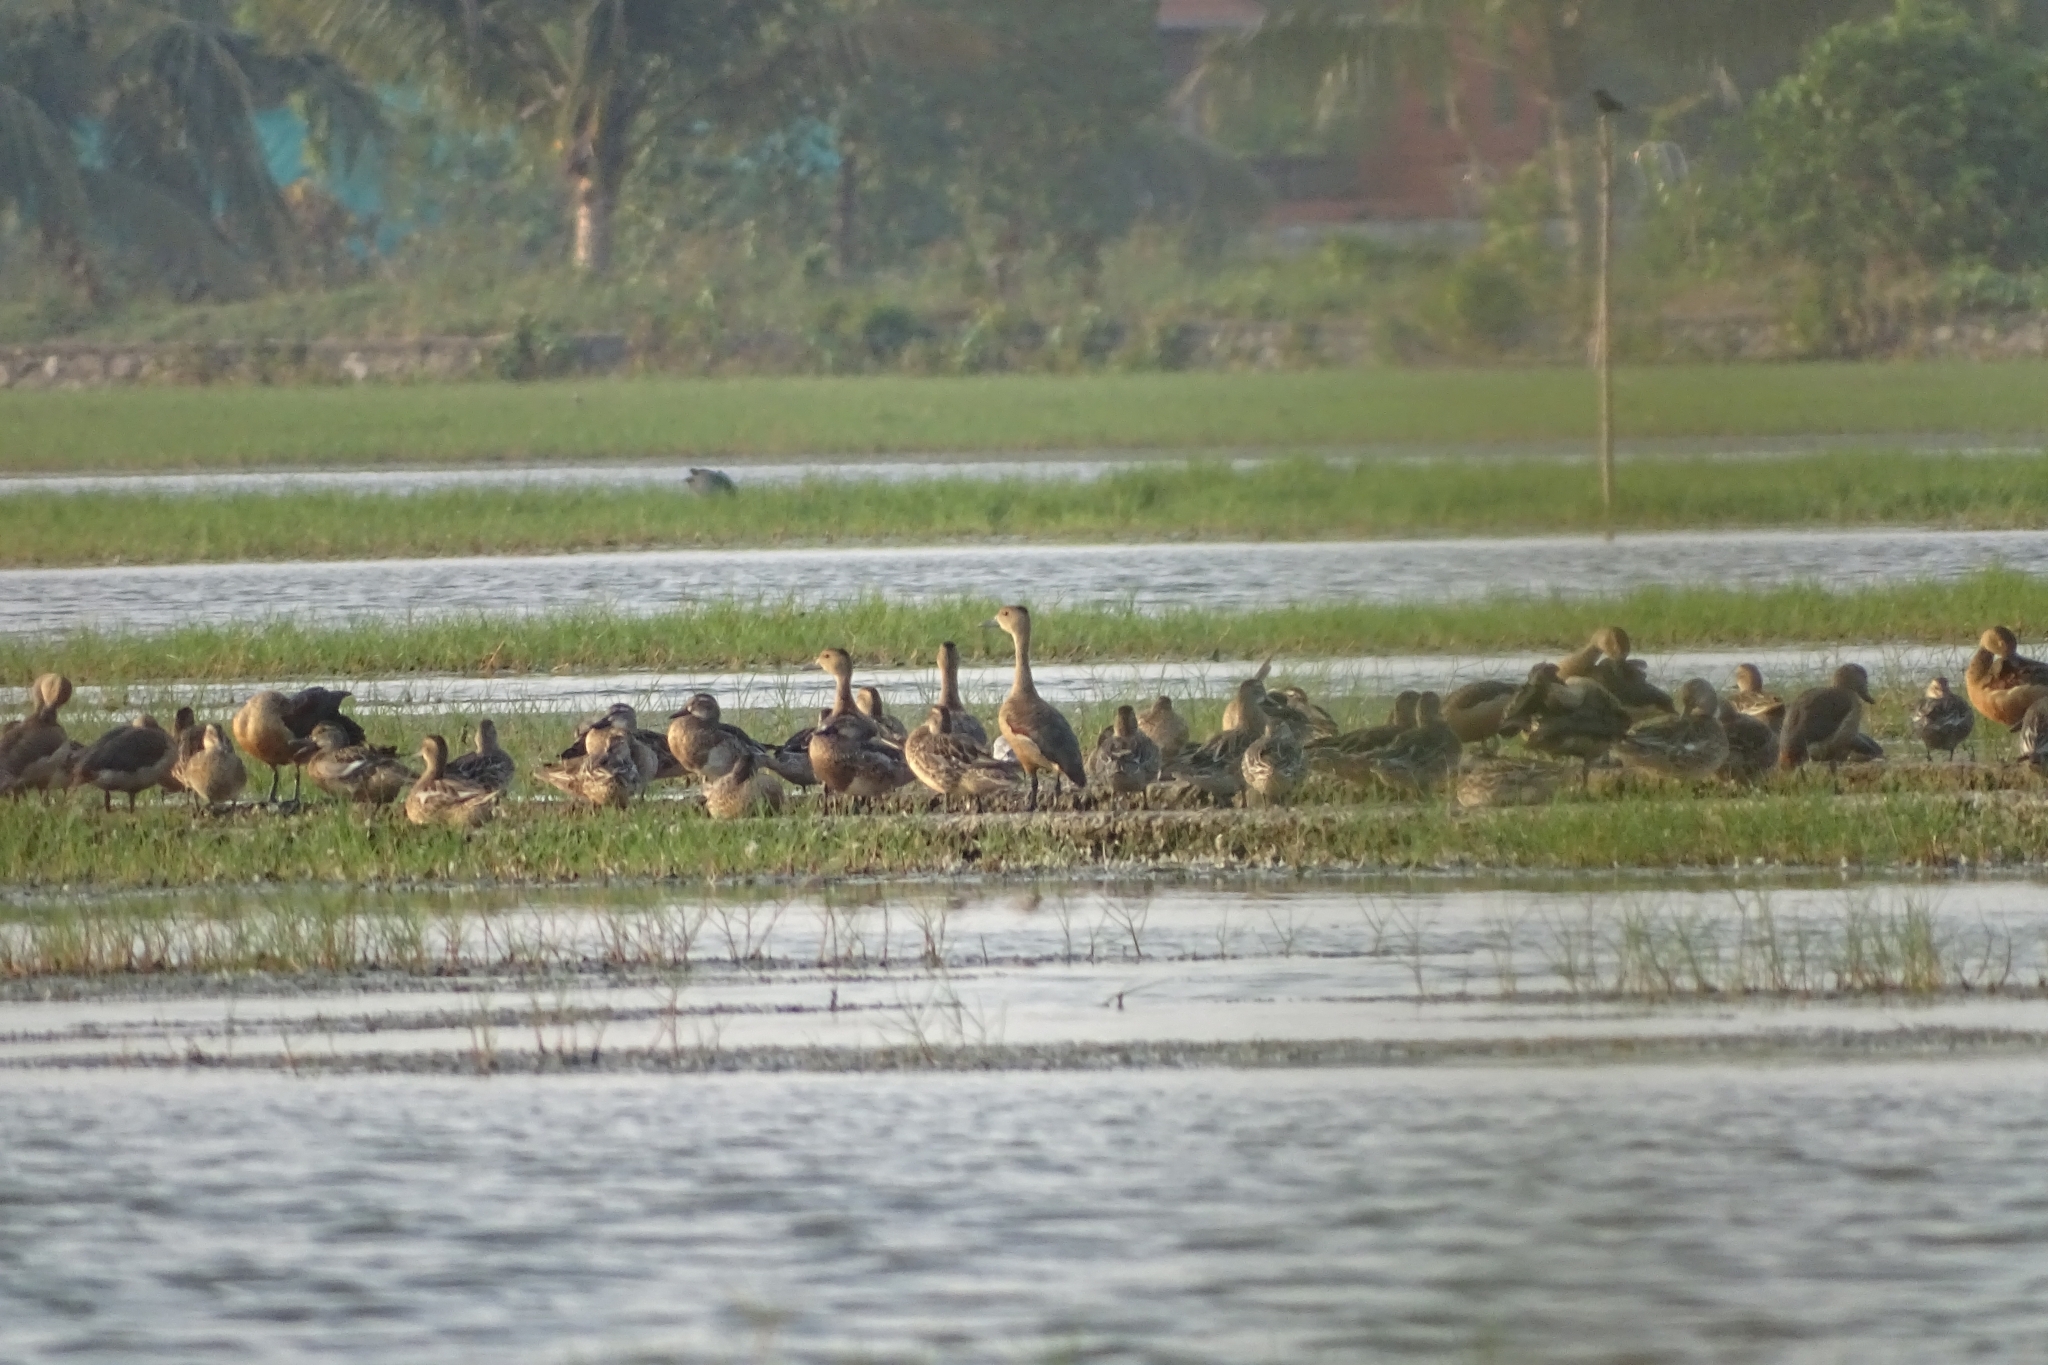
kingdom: Animalia
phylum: Chordata
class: Aves
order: Anseriformes
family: Anatidae
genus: Dendrocygna
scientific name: Dendrocygna javanica
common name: Lesser whistling-duck
